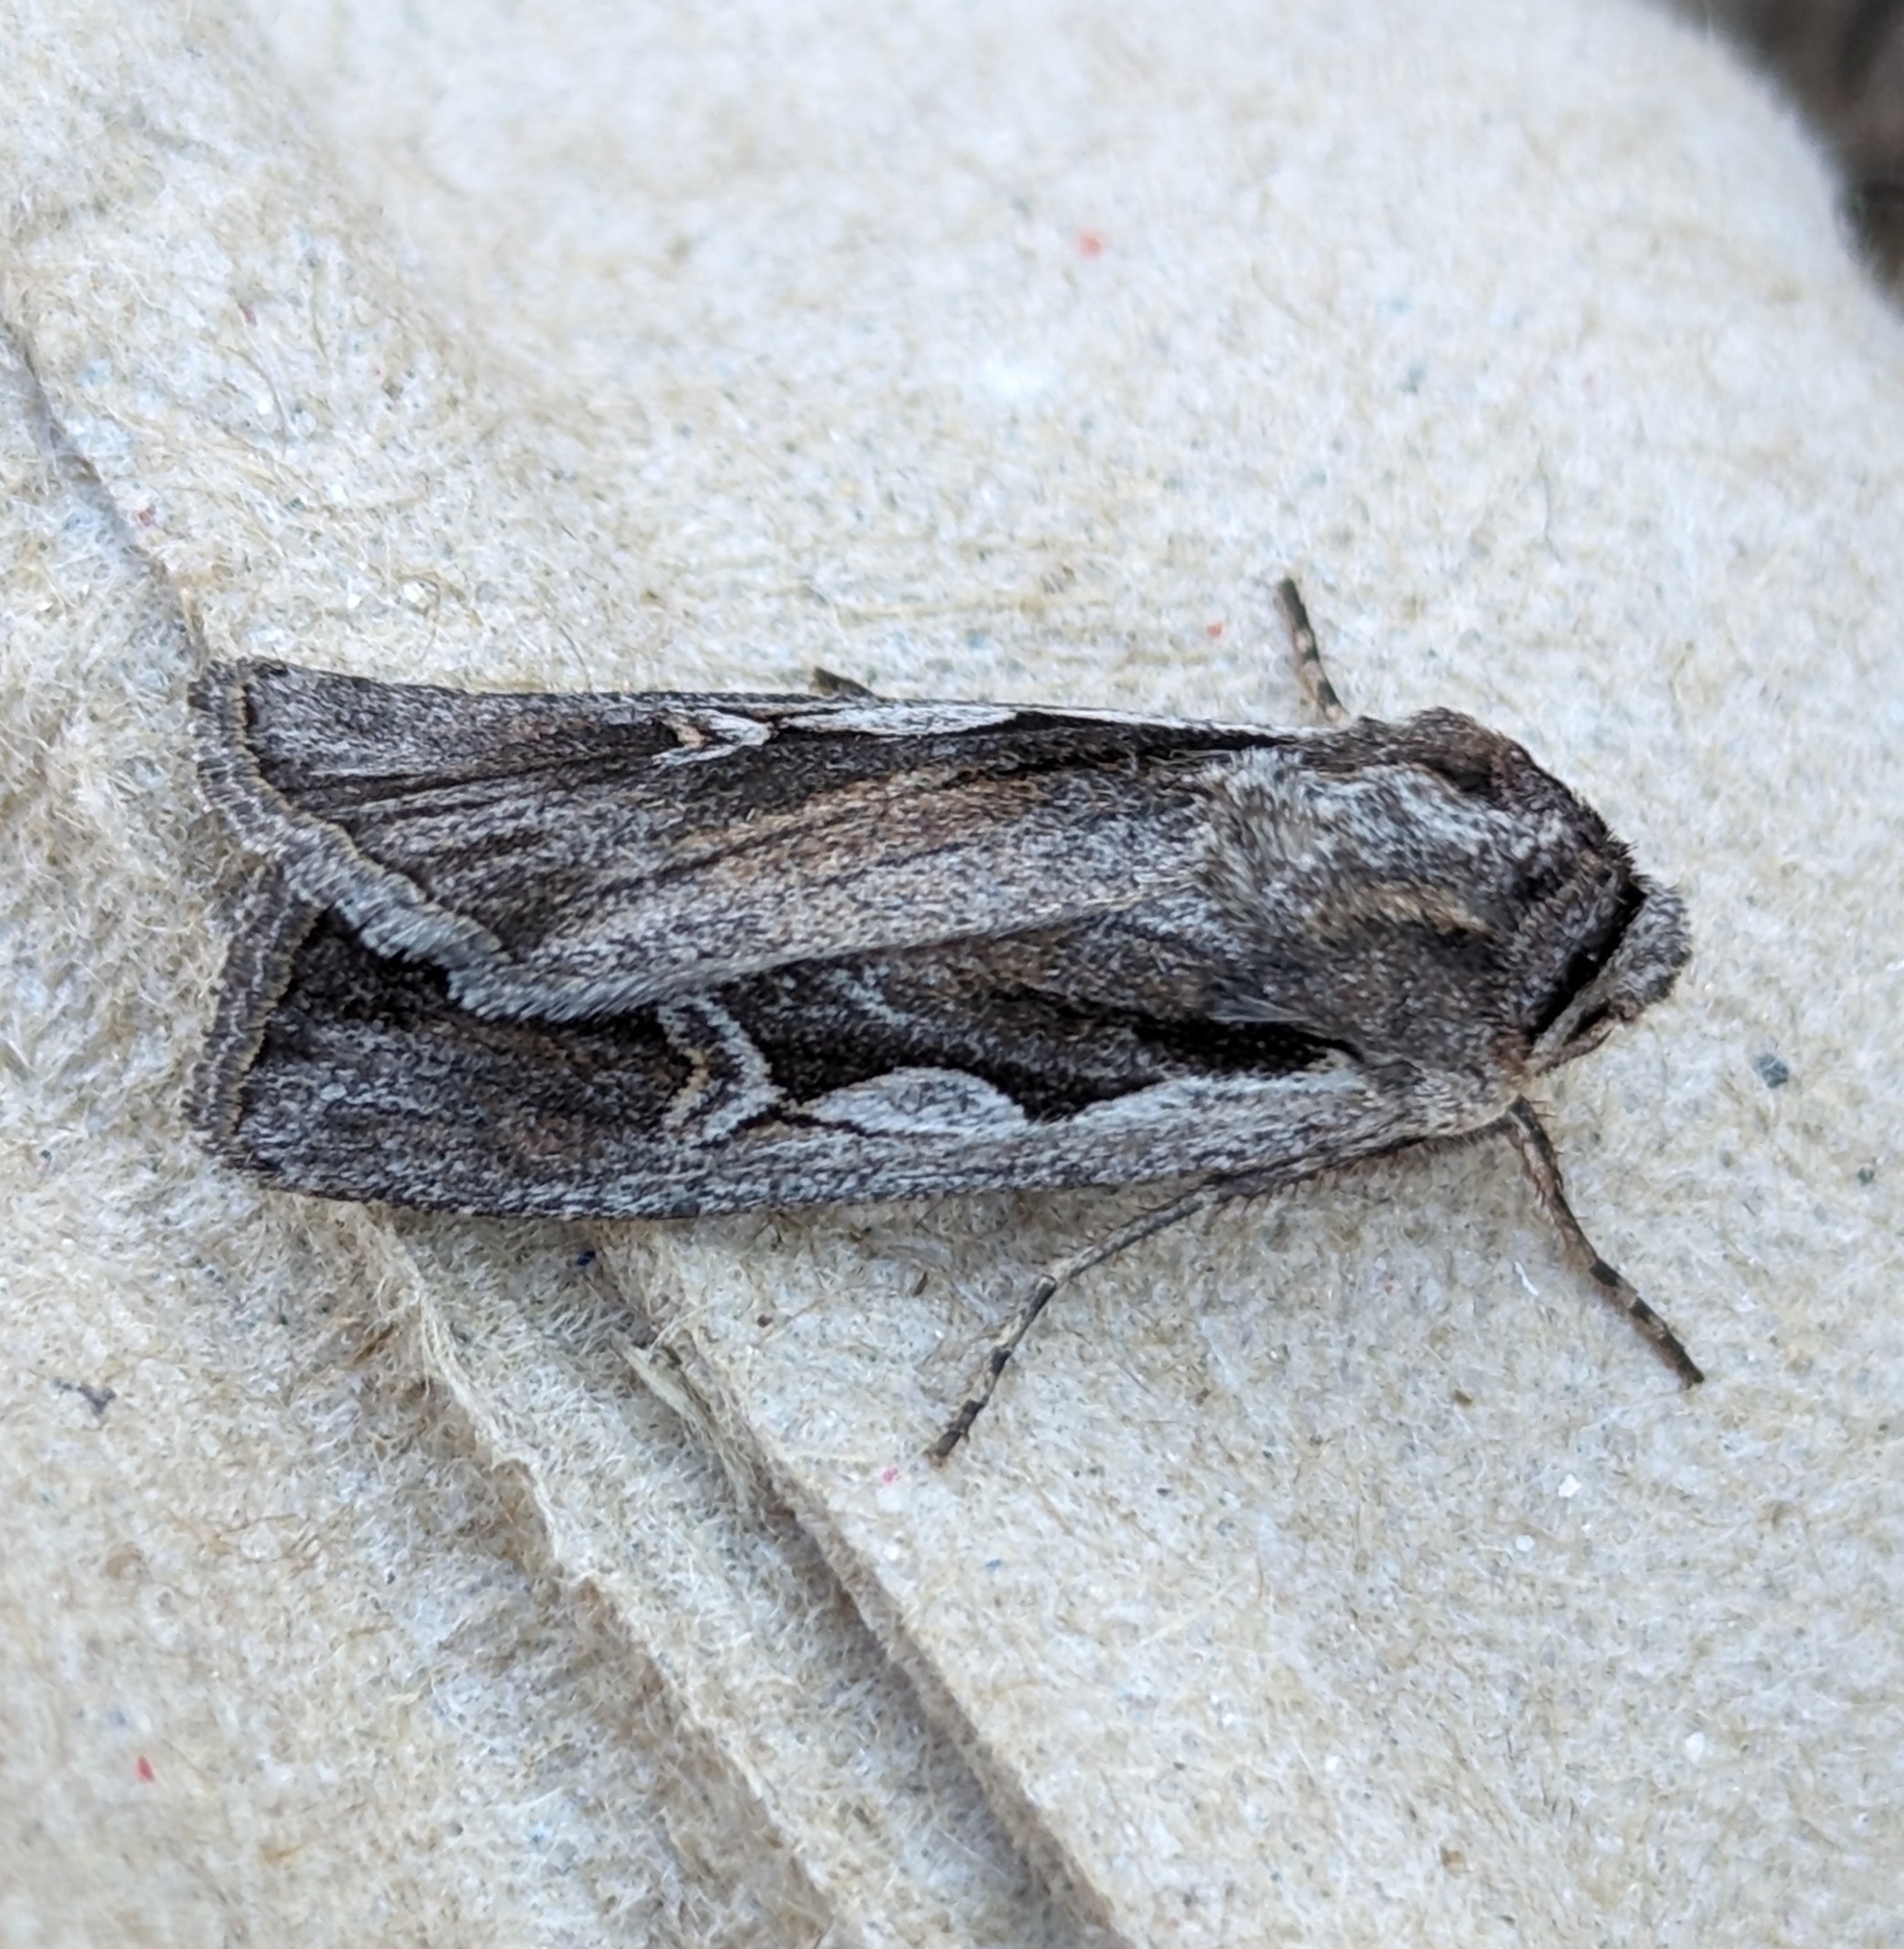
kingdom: Animalia
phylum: Arthropoda
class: Insecta
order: Lepidoptera
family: Noctuidae
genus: Euxoa
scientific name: Euxoa hollemani
